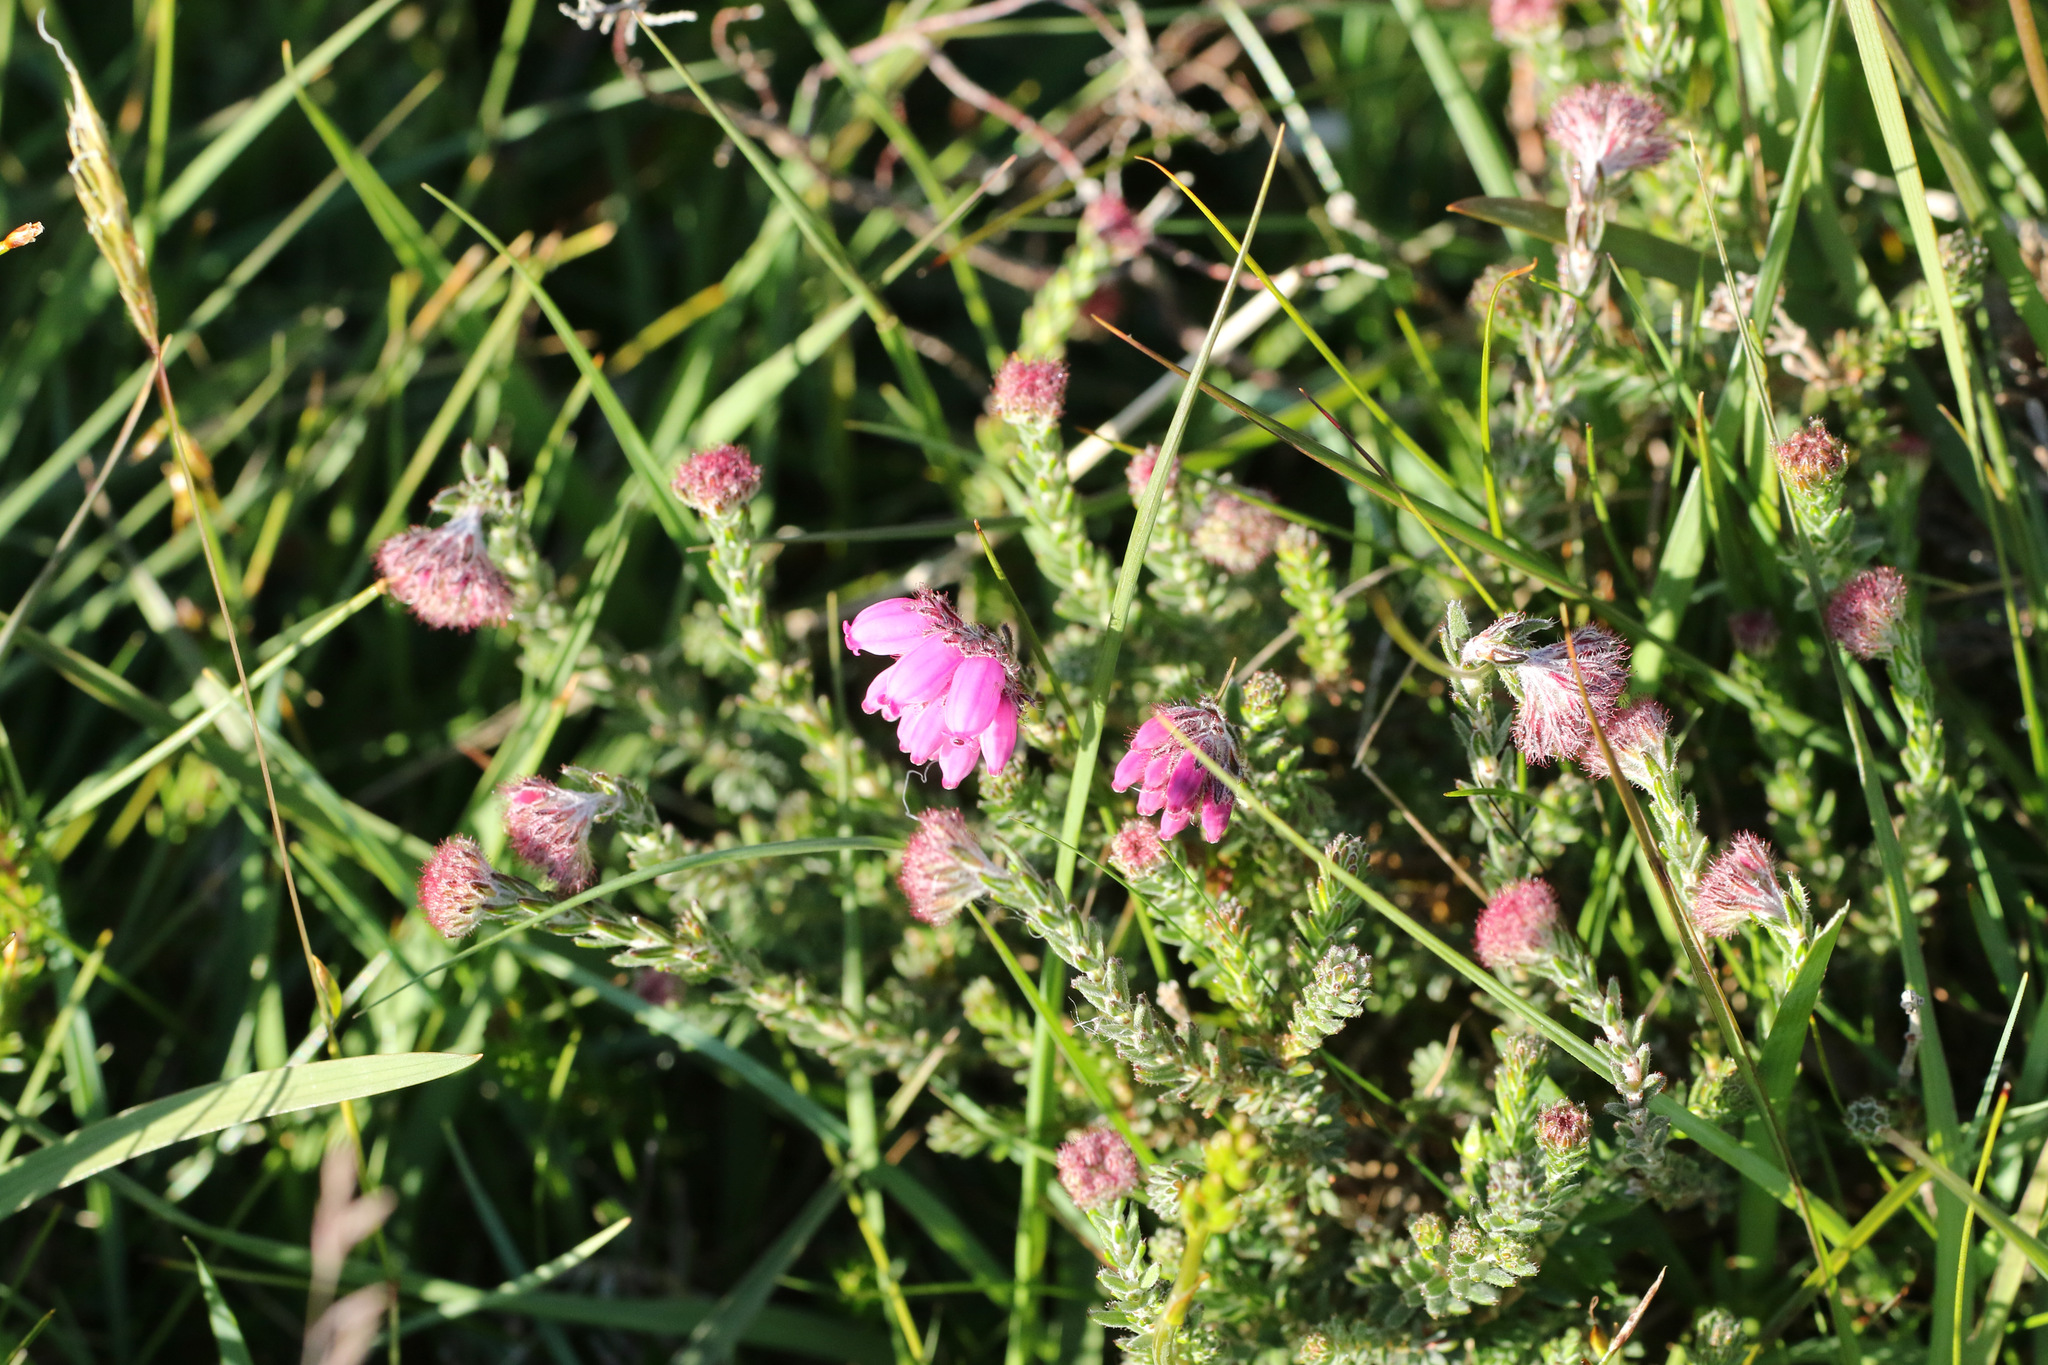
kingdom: Plantae
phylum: Tracheophyta
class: Magnoliopsida
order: Ericales
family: Ericaceae
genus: Erica
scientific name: Erica tetralix
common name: Cross-leaved heath
